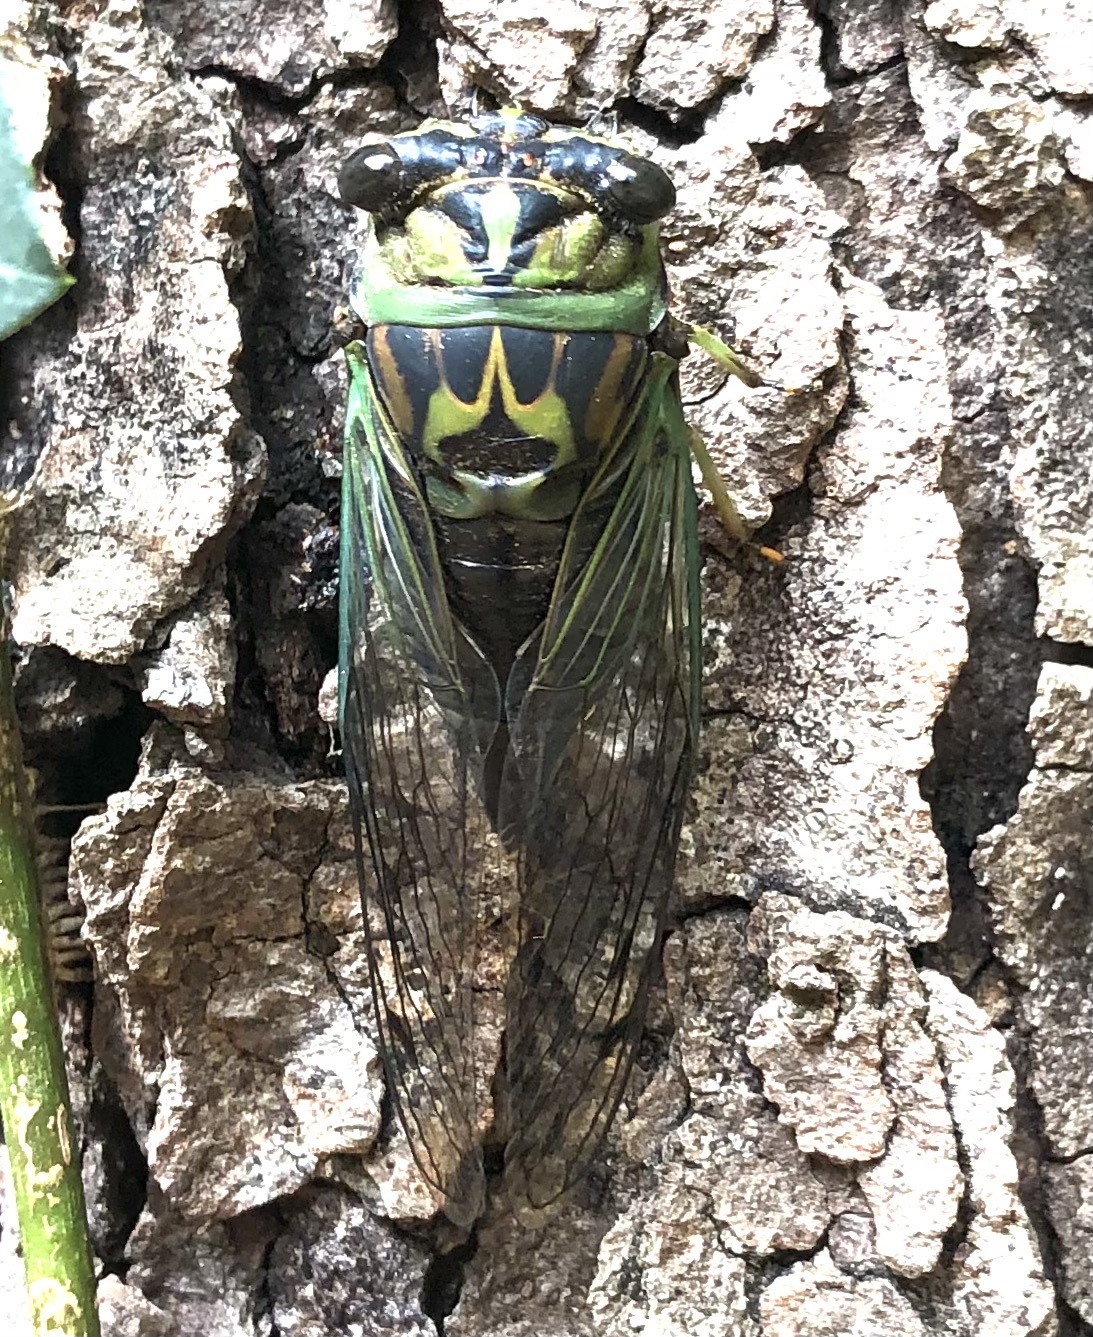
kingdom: Animalia
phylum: Arthropoda
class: Insecta
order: Hemiptera
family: Cicadidae
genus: Neotibicen
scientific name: Neotibicen linnei
